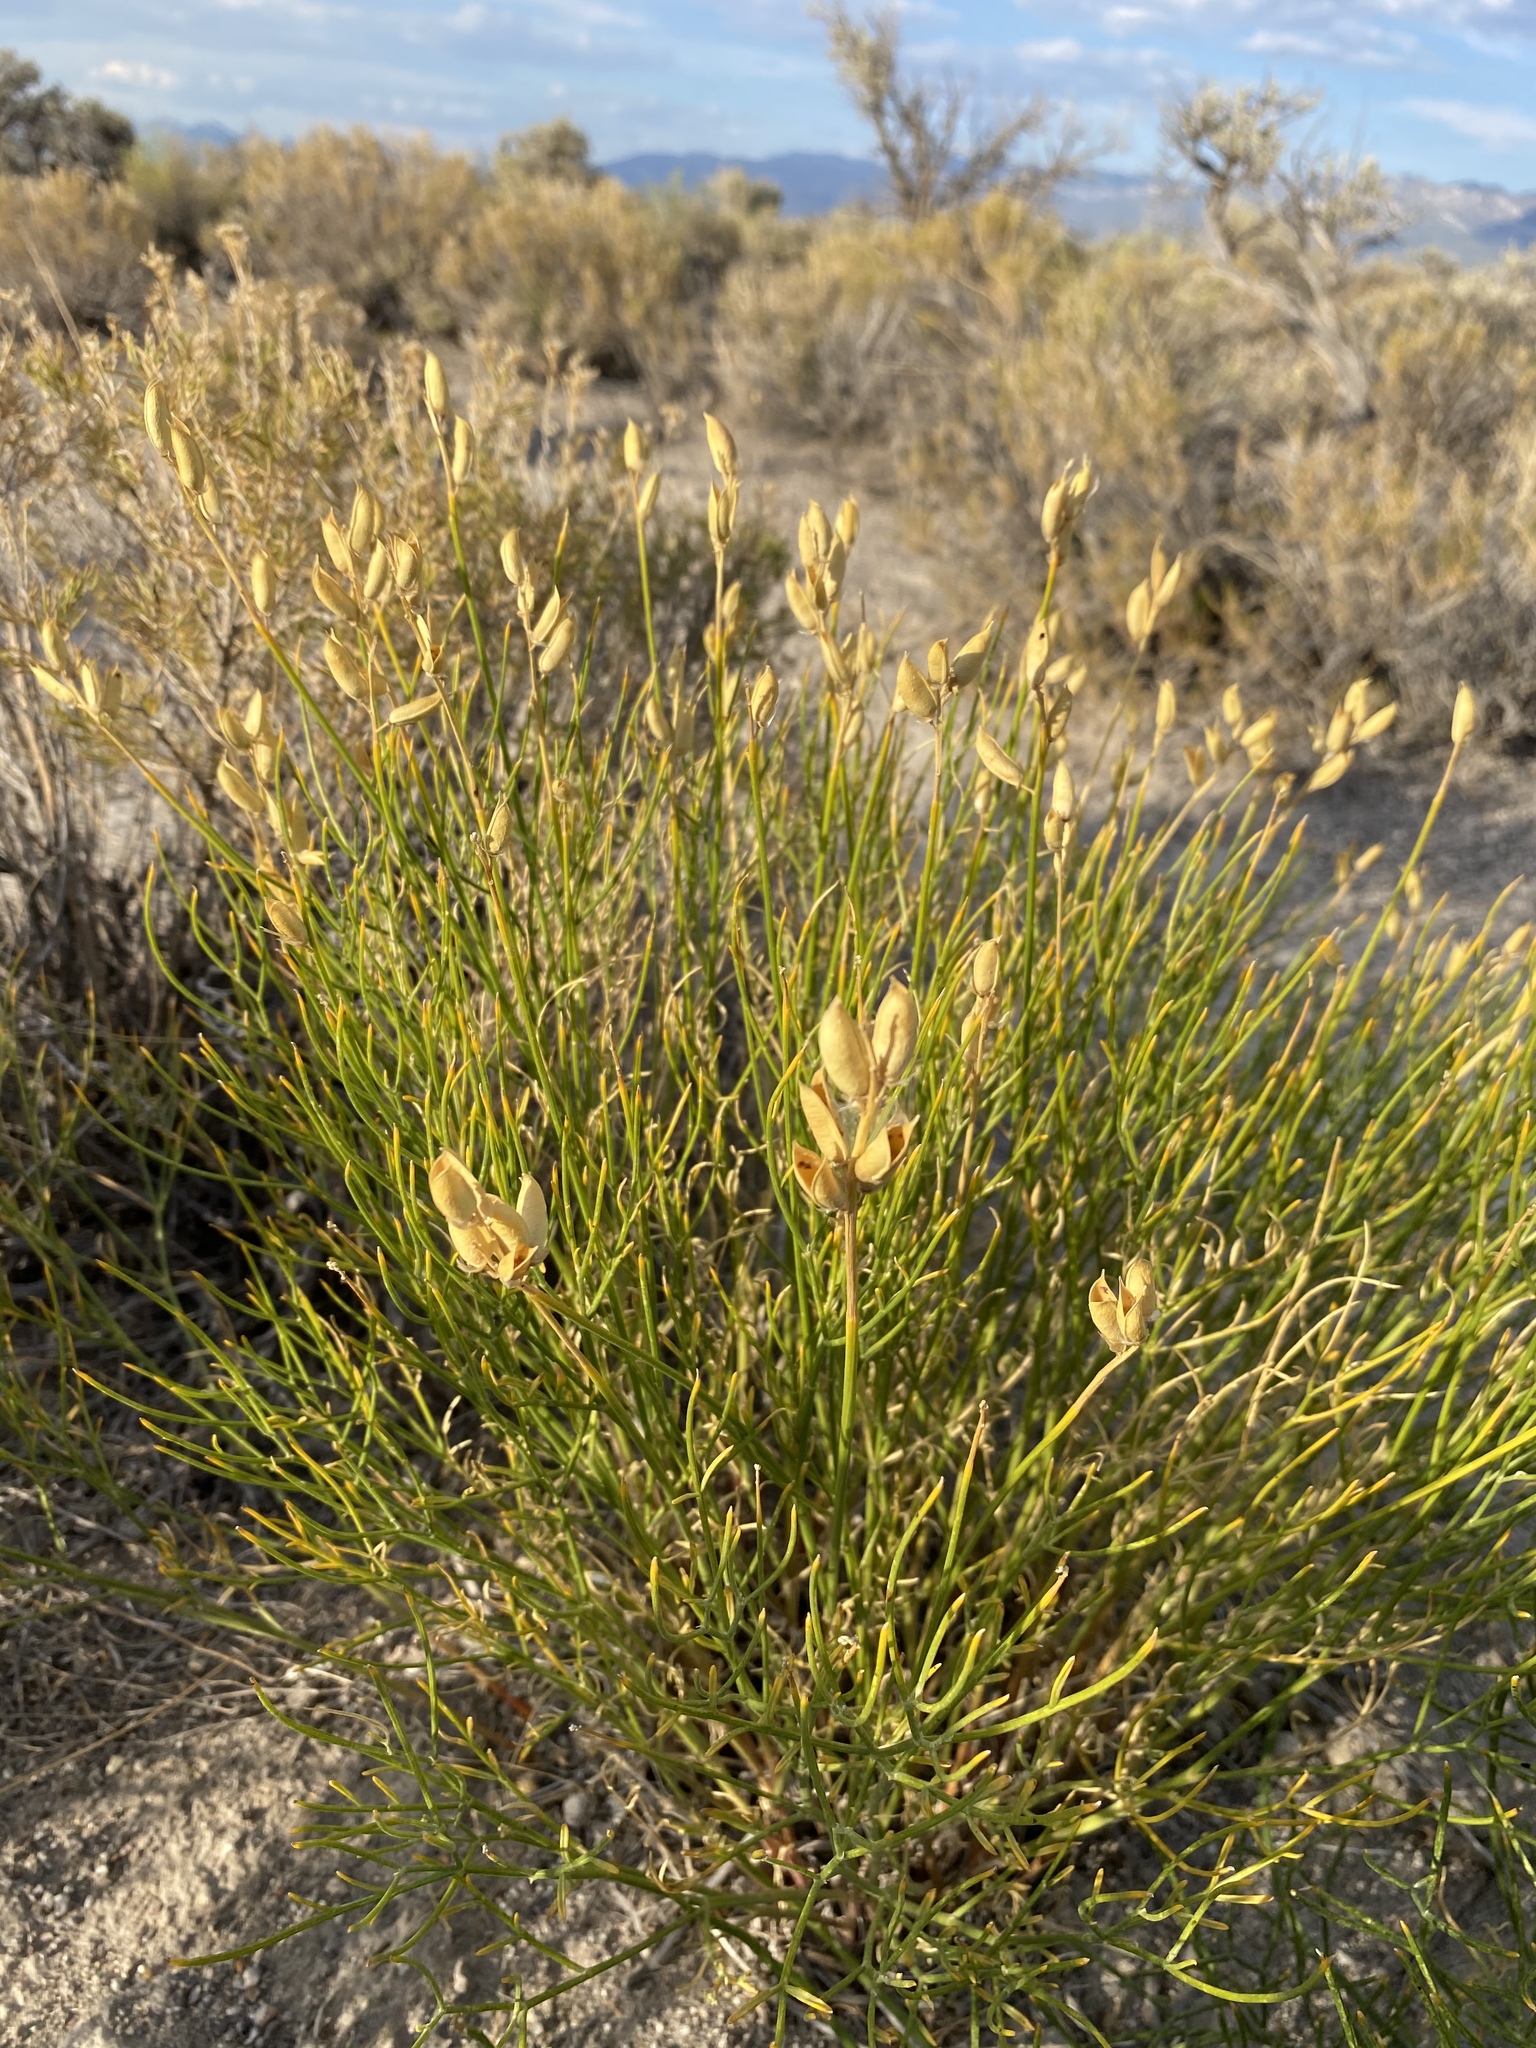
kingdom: Plantae
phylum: Tracheophyta
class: Magnoliopsida
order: Fabales
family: Fabaceae
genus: Astragalus
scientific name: Astragalus toanus
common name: Toano milk-vetch
